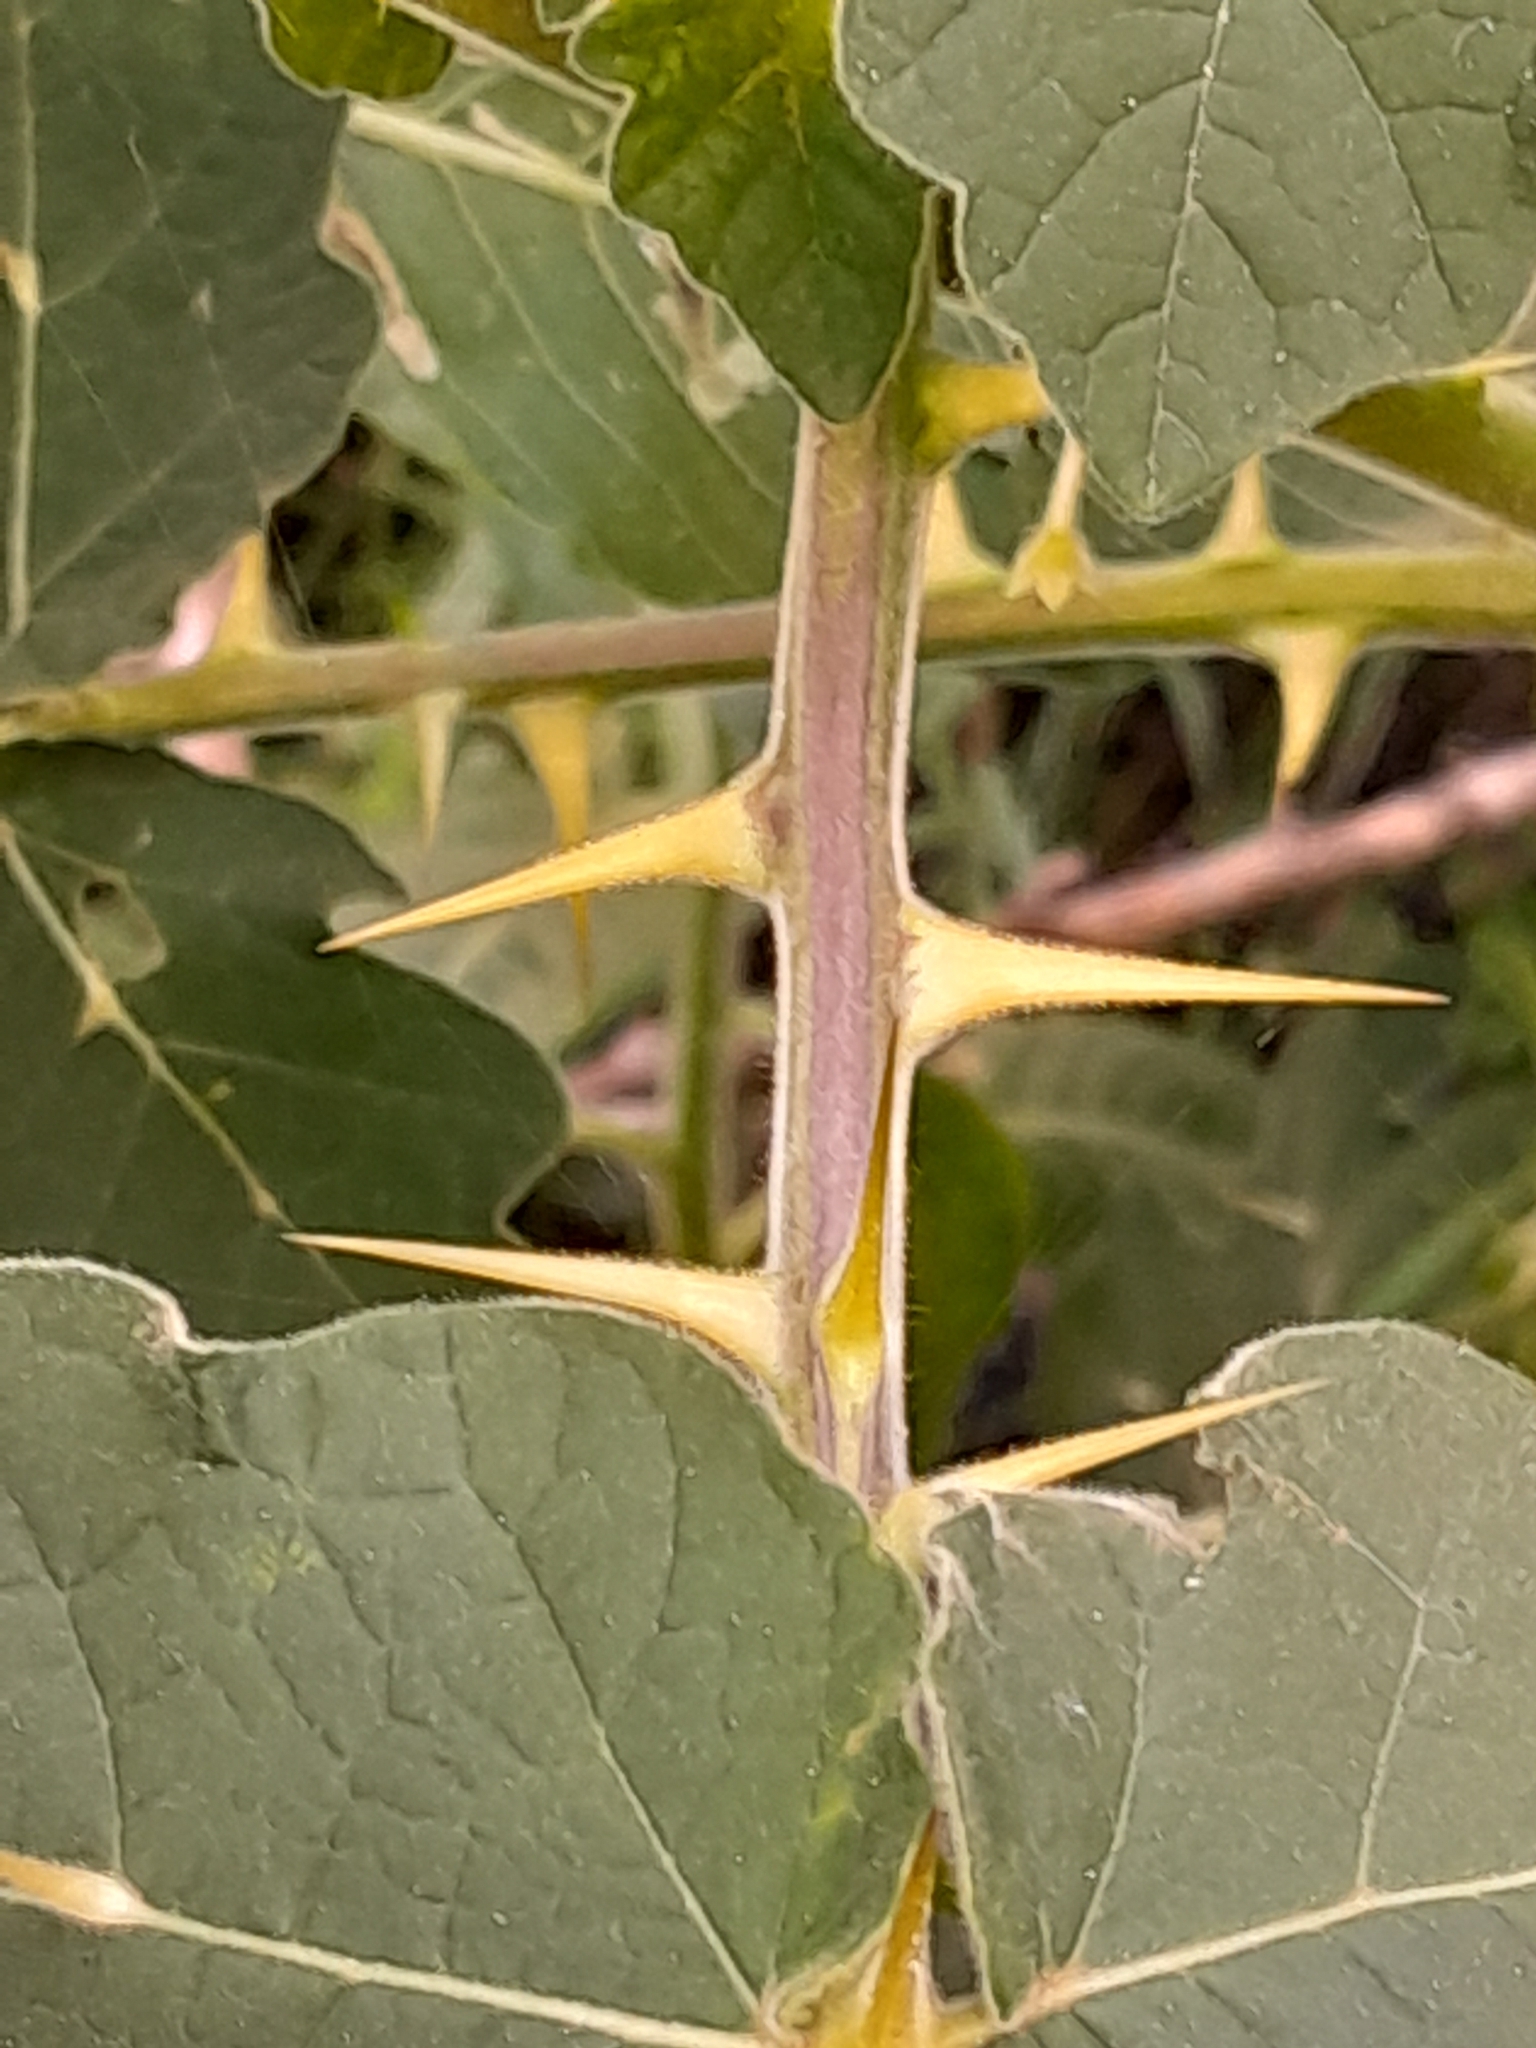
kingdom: Plantae
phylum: Tracheophyta
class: Magnoliopsida
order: Solanales
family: Solanaceae
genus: Solanum
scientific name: Solanum viarum
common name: Tropical soda apple
